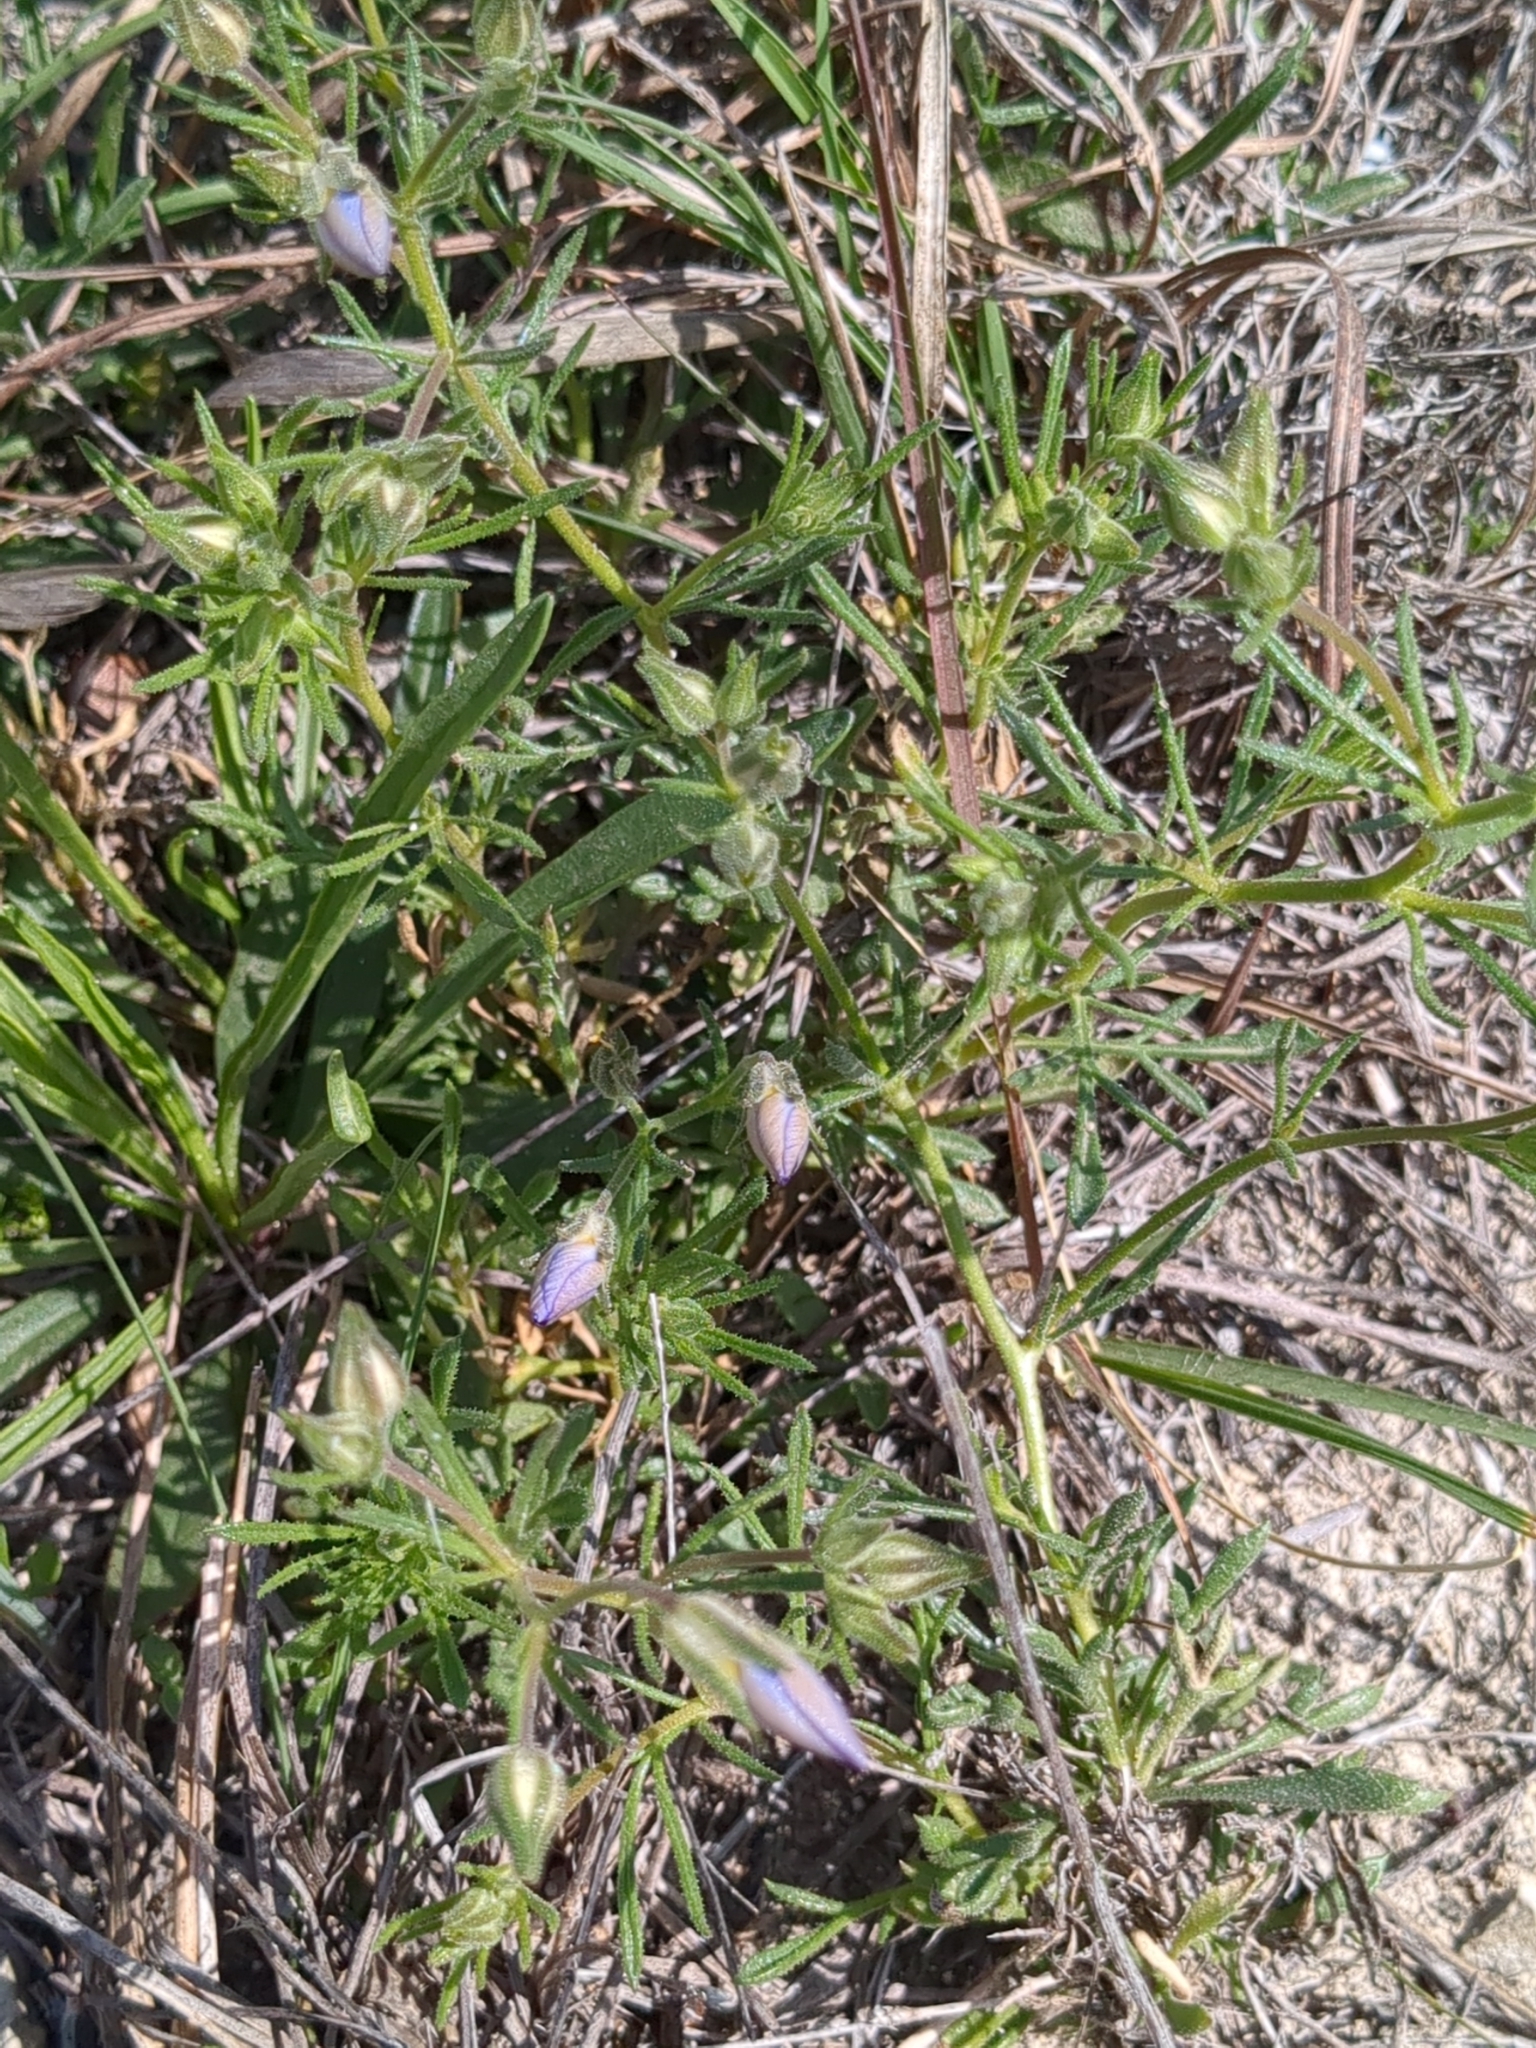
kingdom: Plantae
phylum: Tracheophyta
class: Magnoliopsida
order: Ericales
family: Polemoniaceae
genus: Giliastrum
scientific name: Giliastrum rigidulum
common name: Bluebowls
